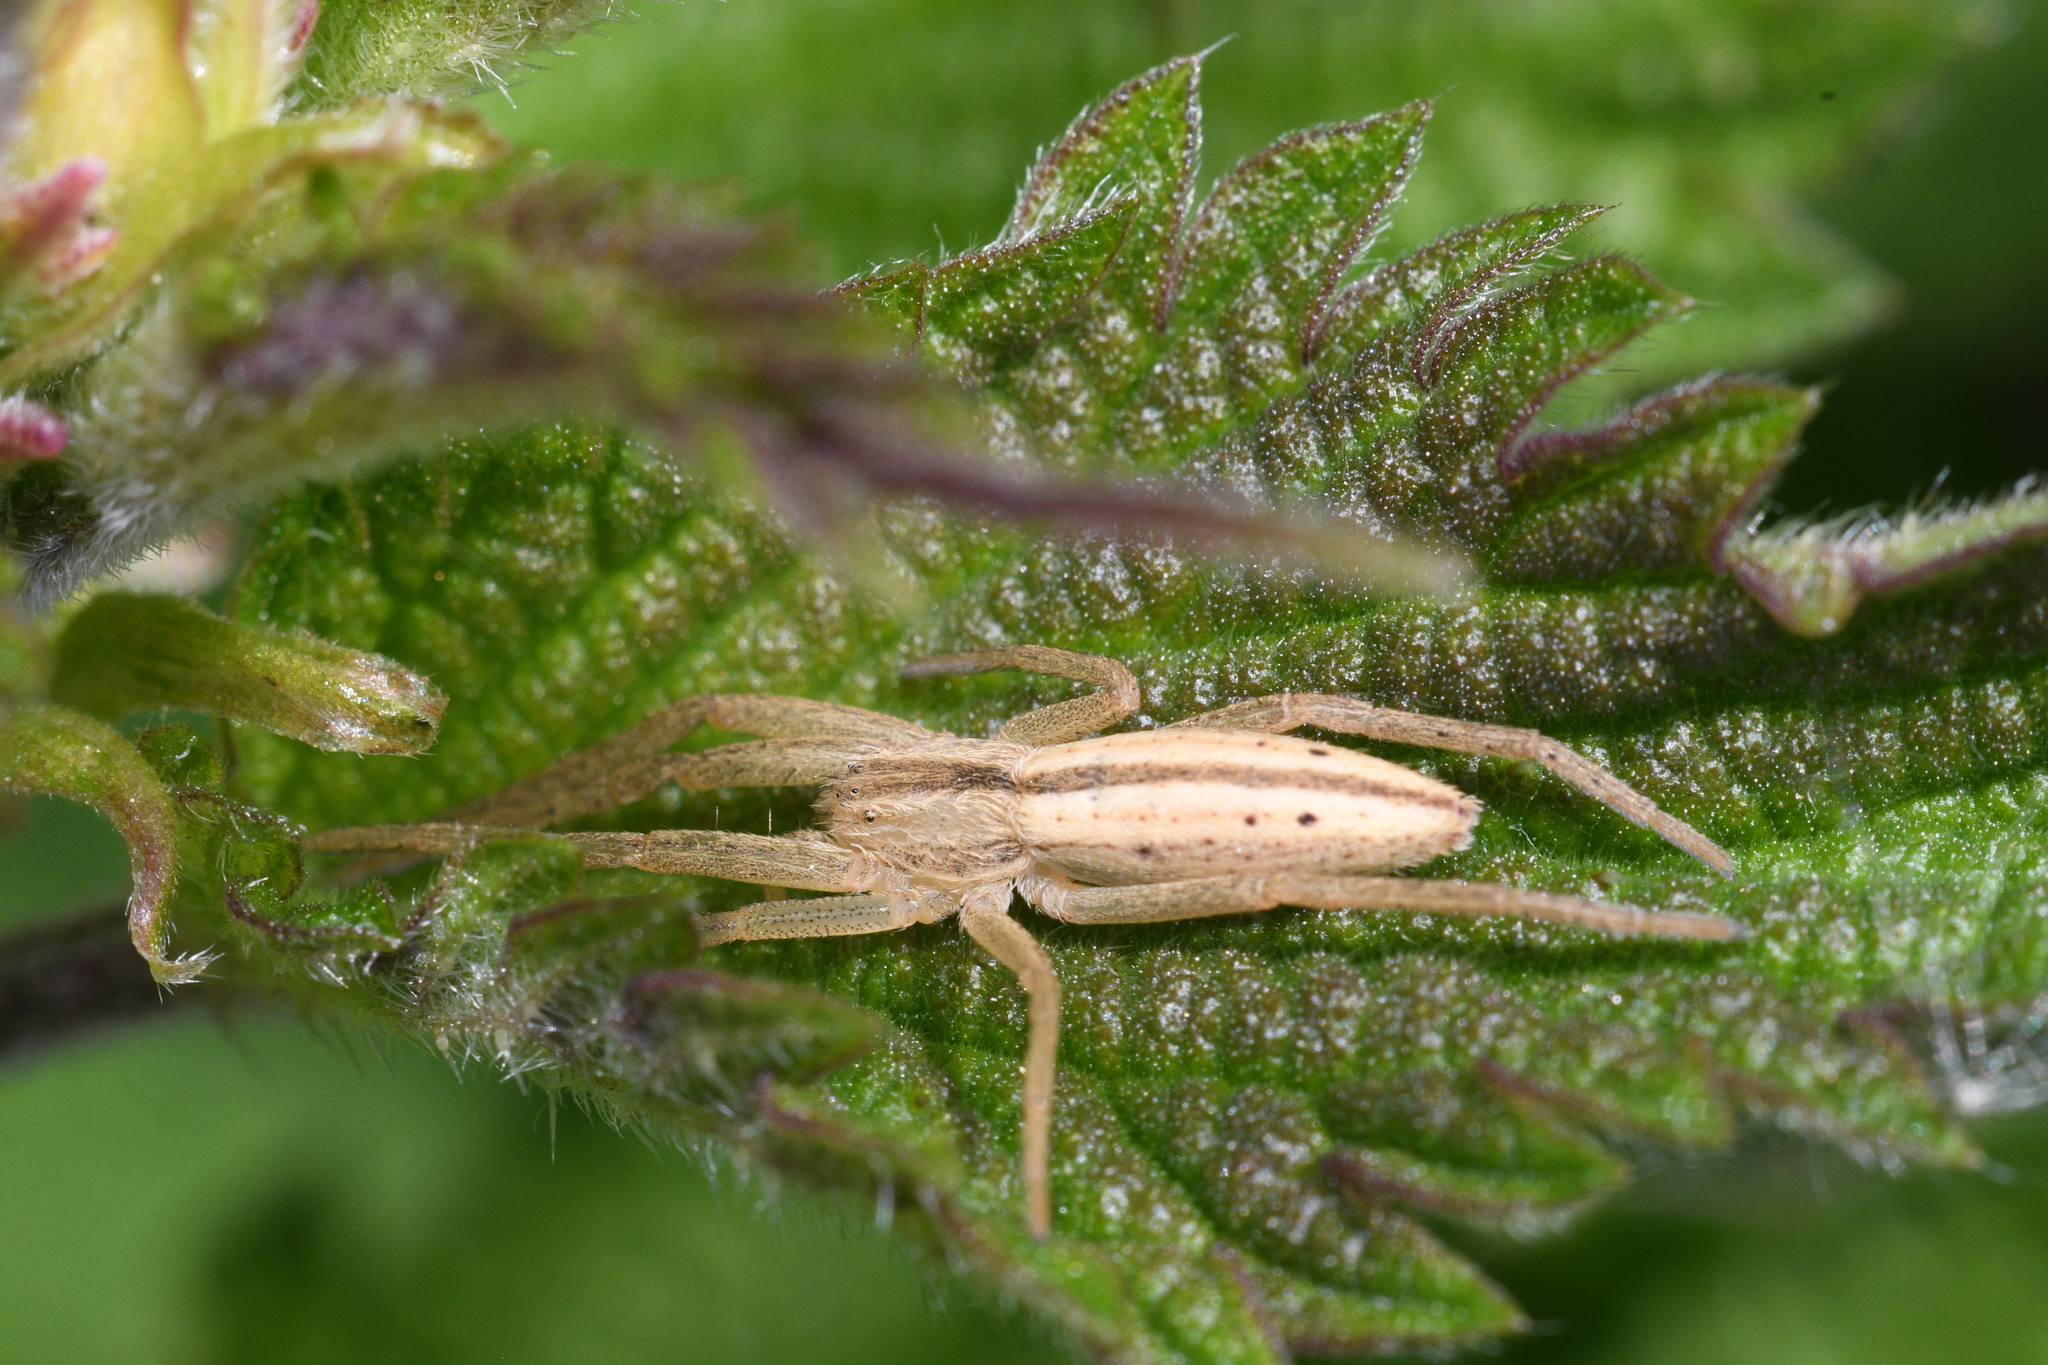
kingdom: Animalia
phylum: Arthropoda
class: Arachnida
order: Araneae
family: Philodromidae
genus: Tibellus
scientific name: Tibellus oblongus
